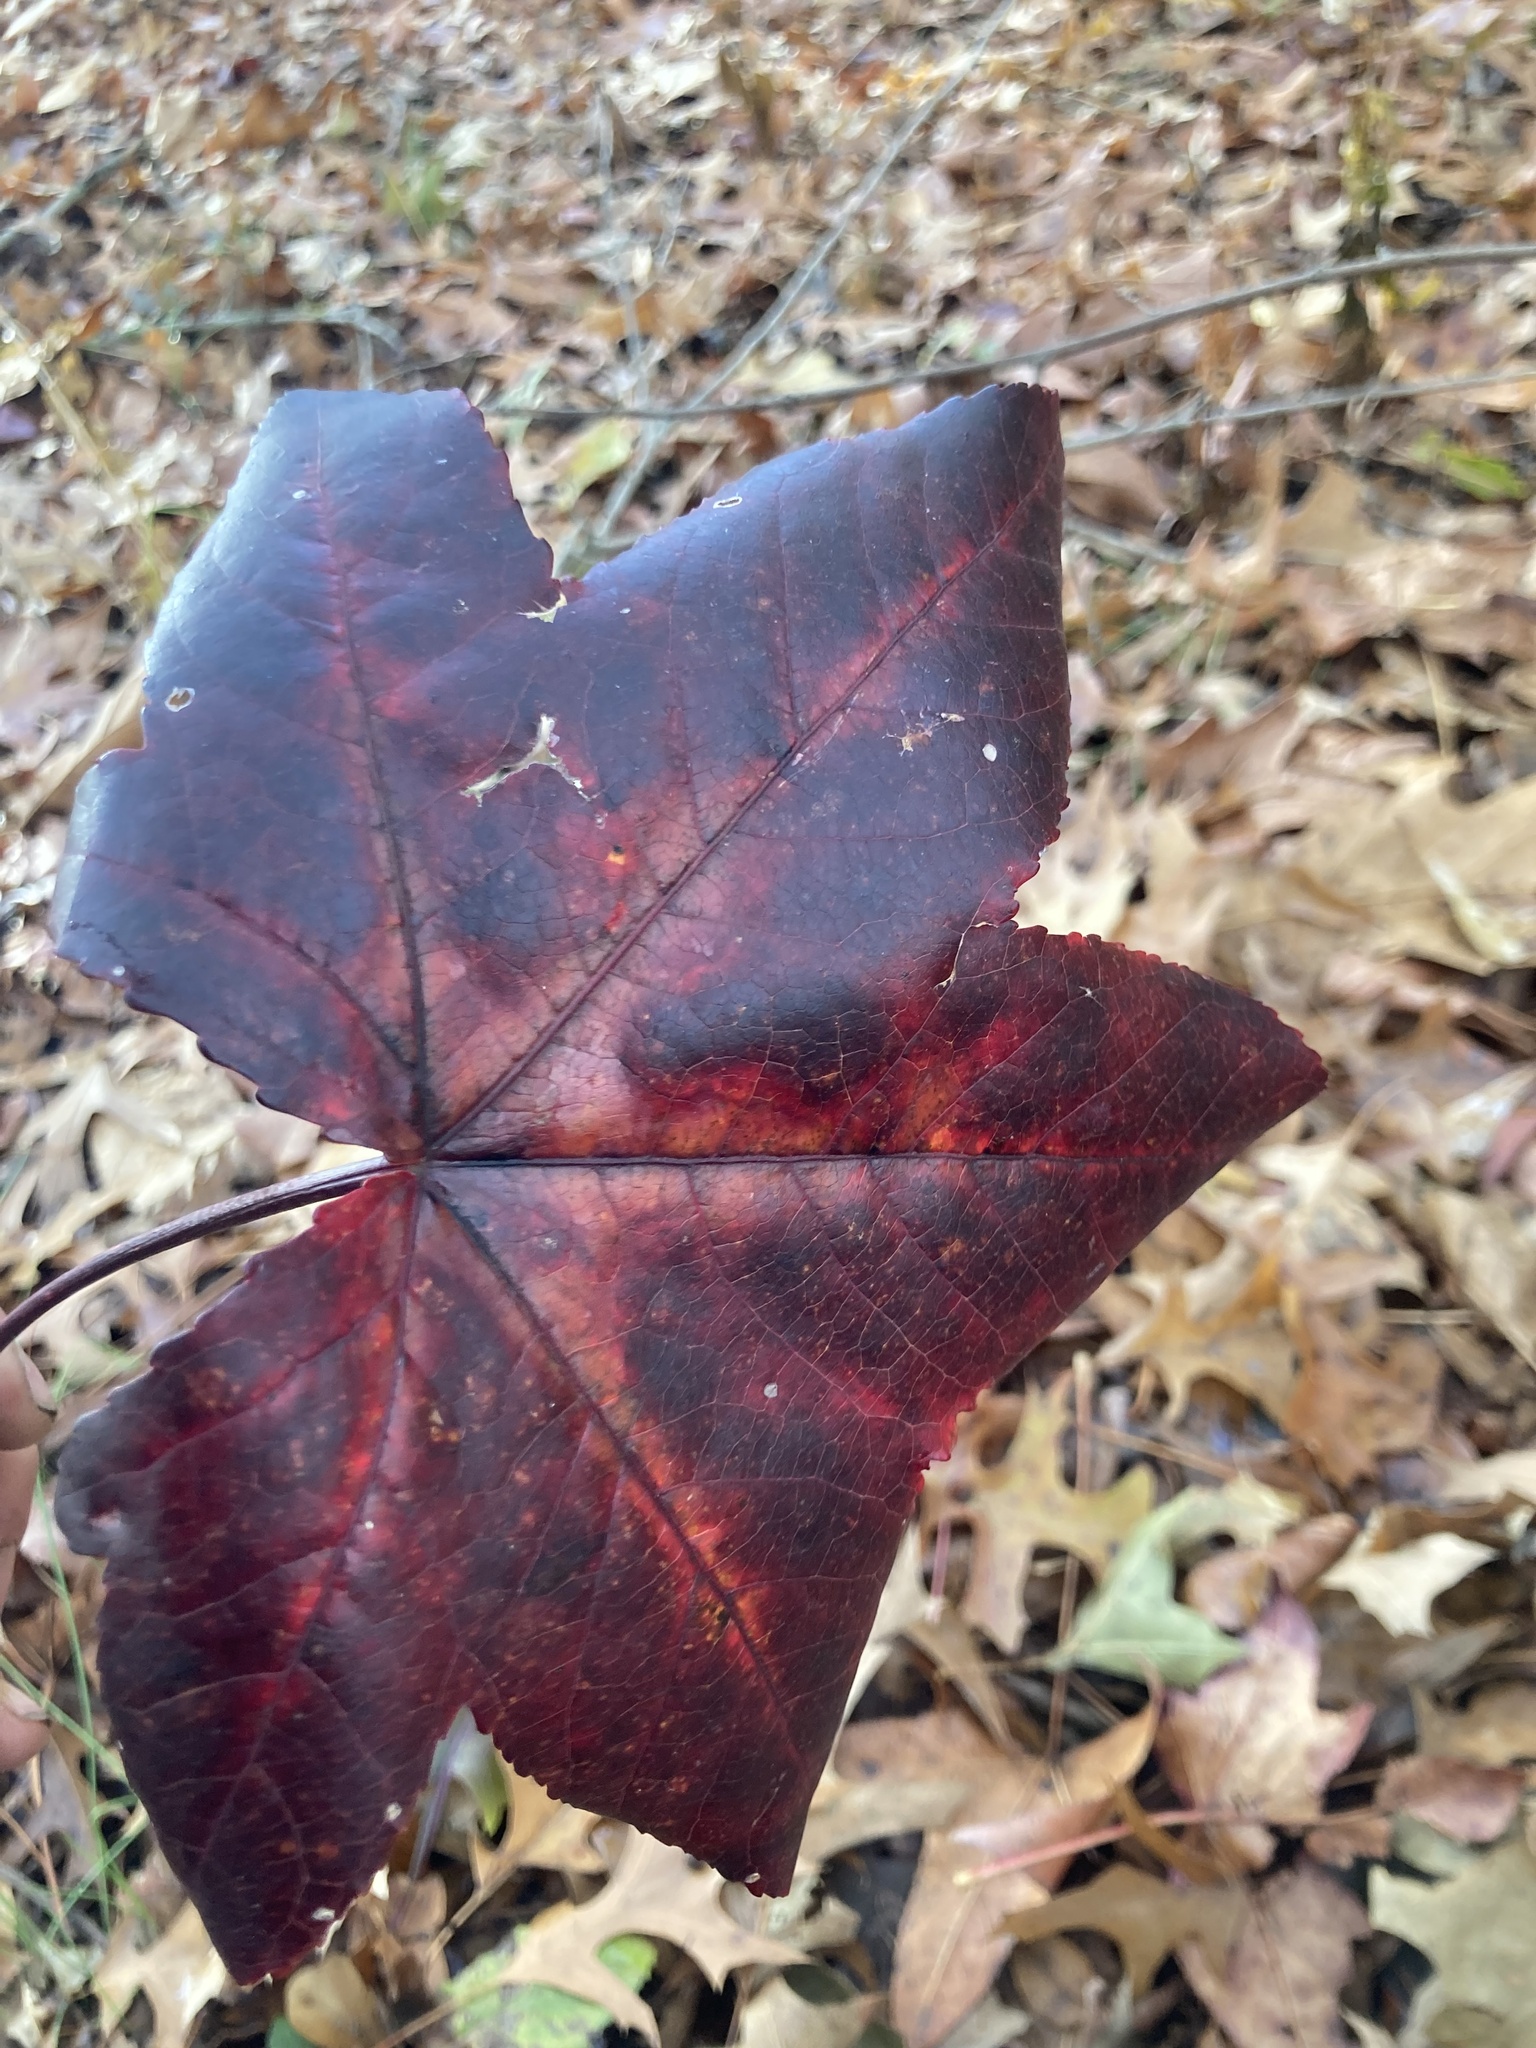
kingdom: Plantae
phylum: Tracheophyta
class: Magnoliopsida
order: Saxifragales
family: Altingiaceae
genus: Liquidambar
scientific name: Liquidambar styraciflua
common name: Sweet gum
